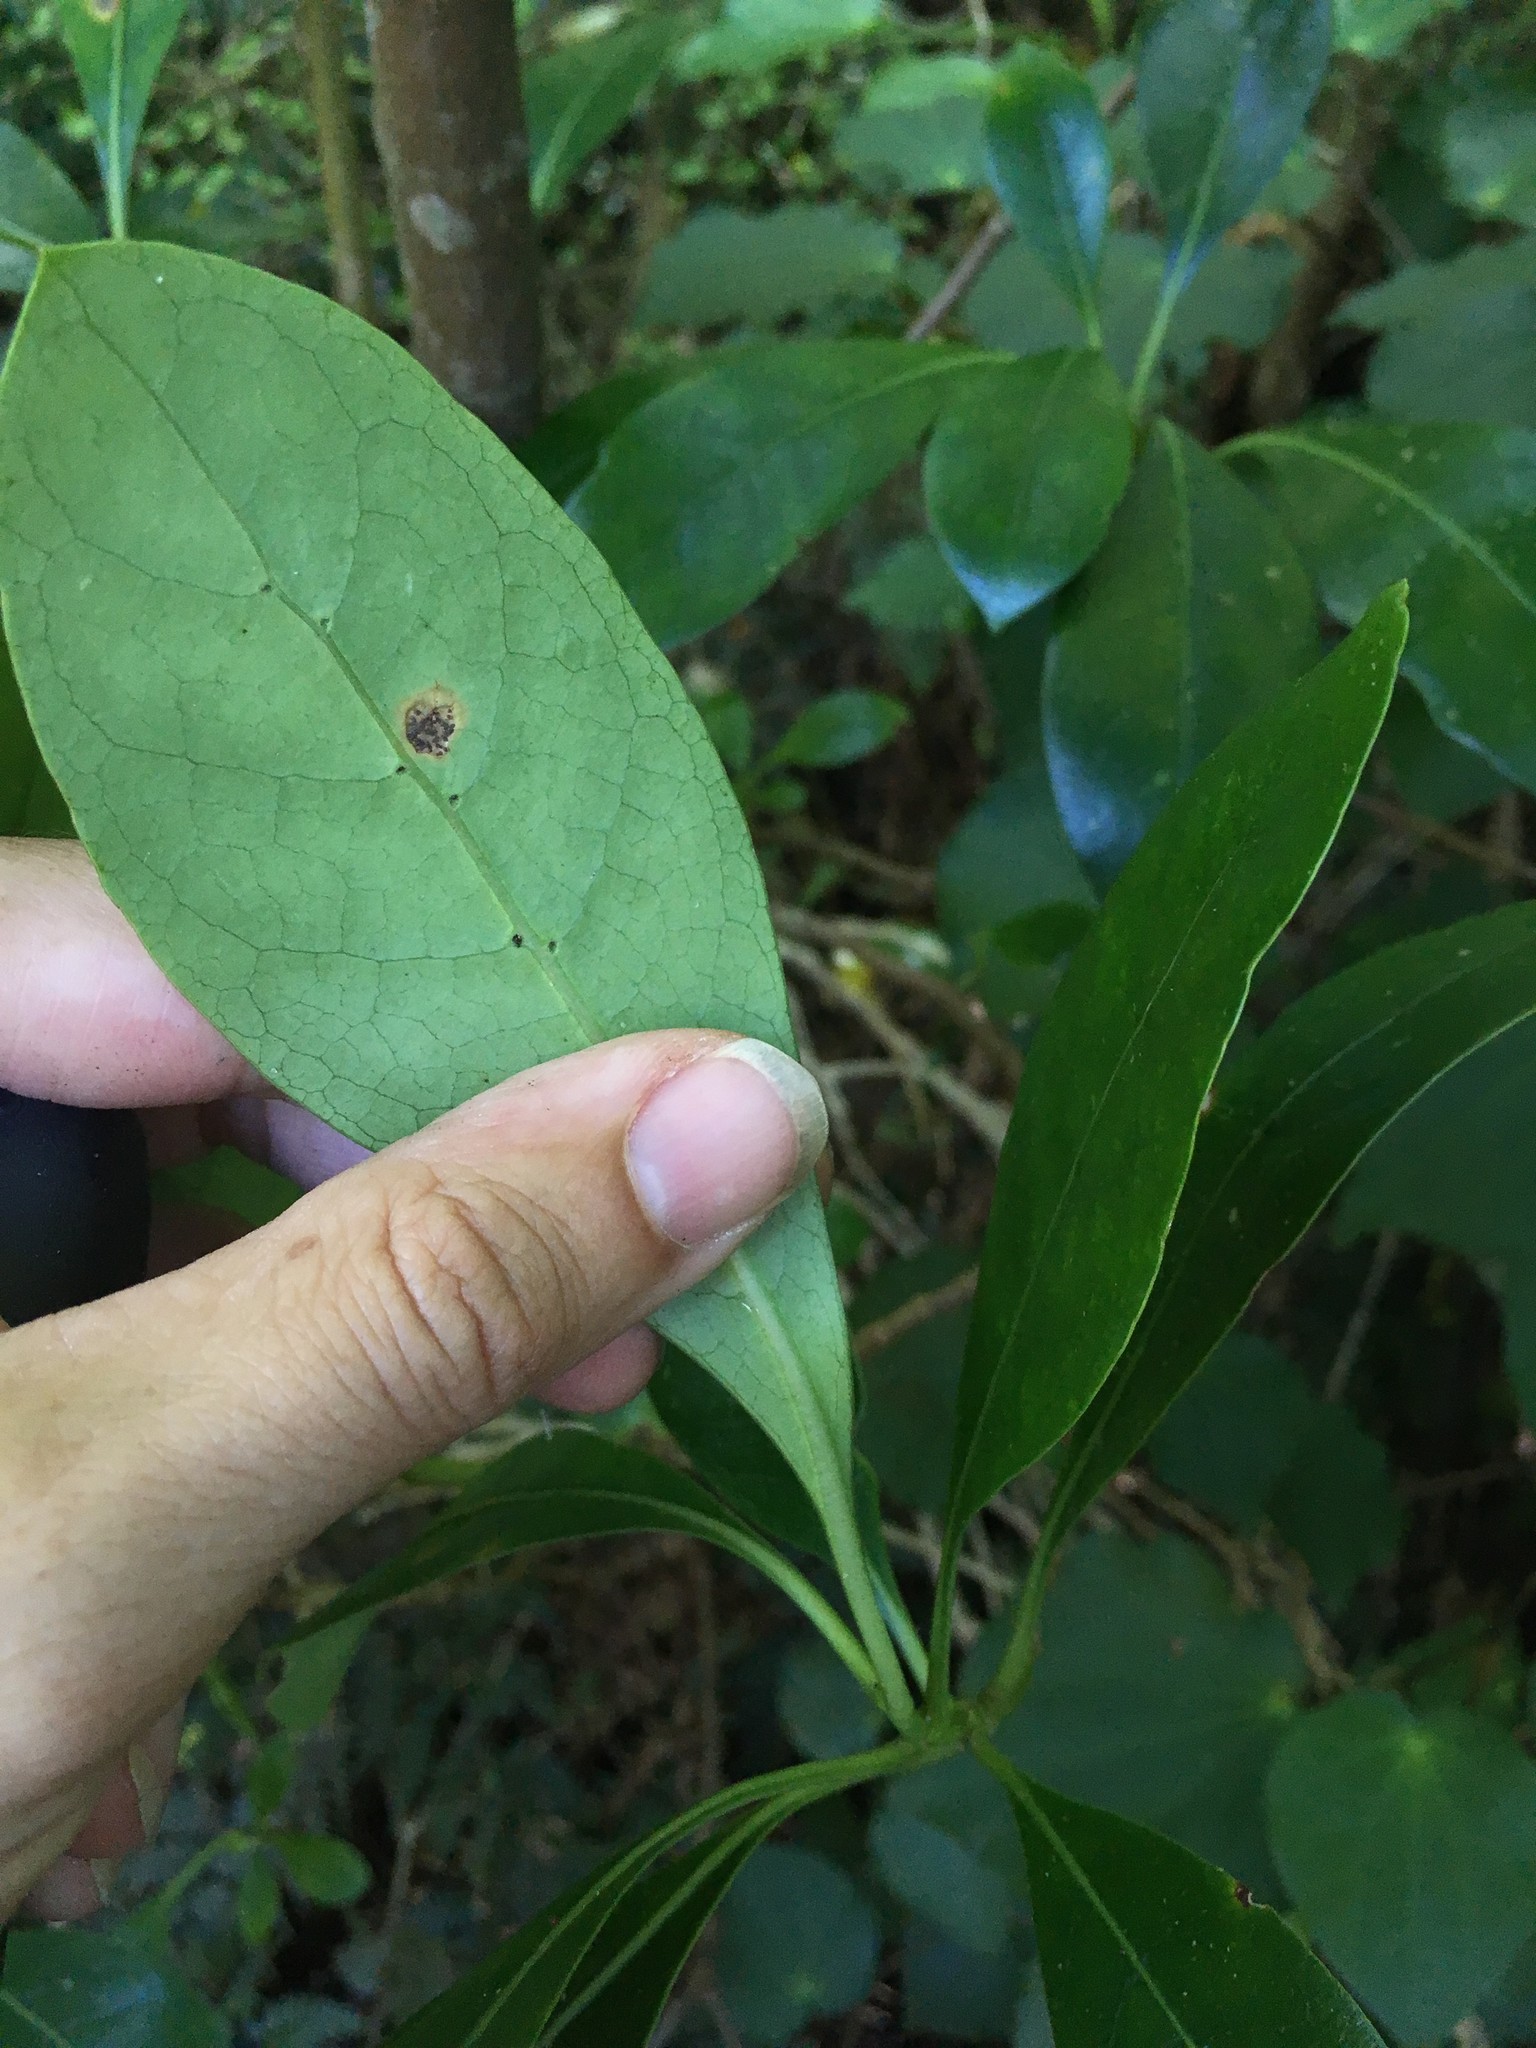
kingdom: Fungi
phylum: Basidiomycota
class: Pucciniomycetes
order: Pucciniales
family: Pucciniaceae
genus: Puccinia
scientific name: Puccinia coprosmae
